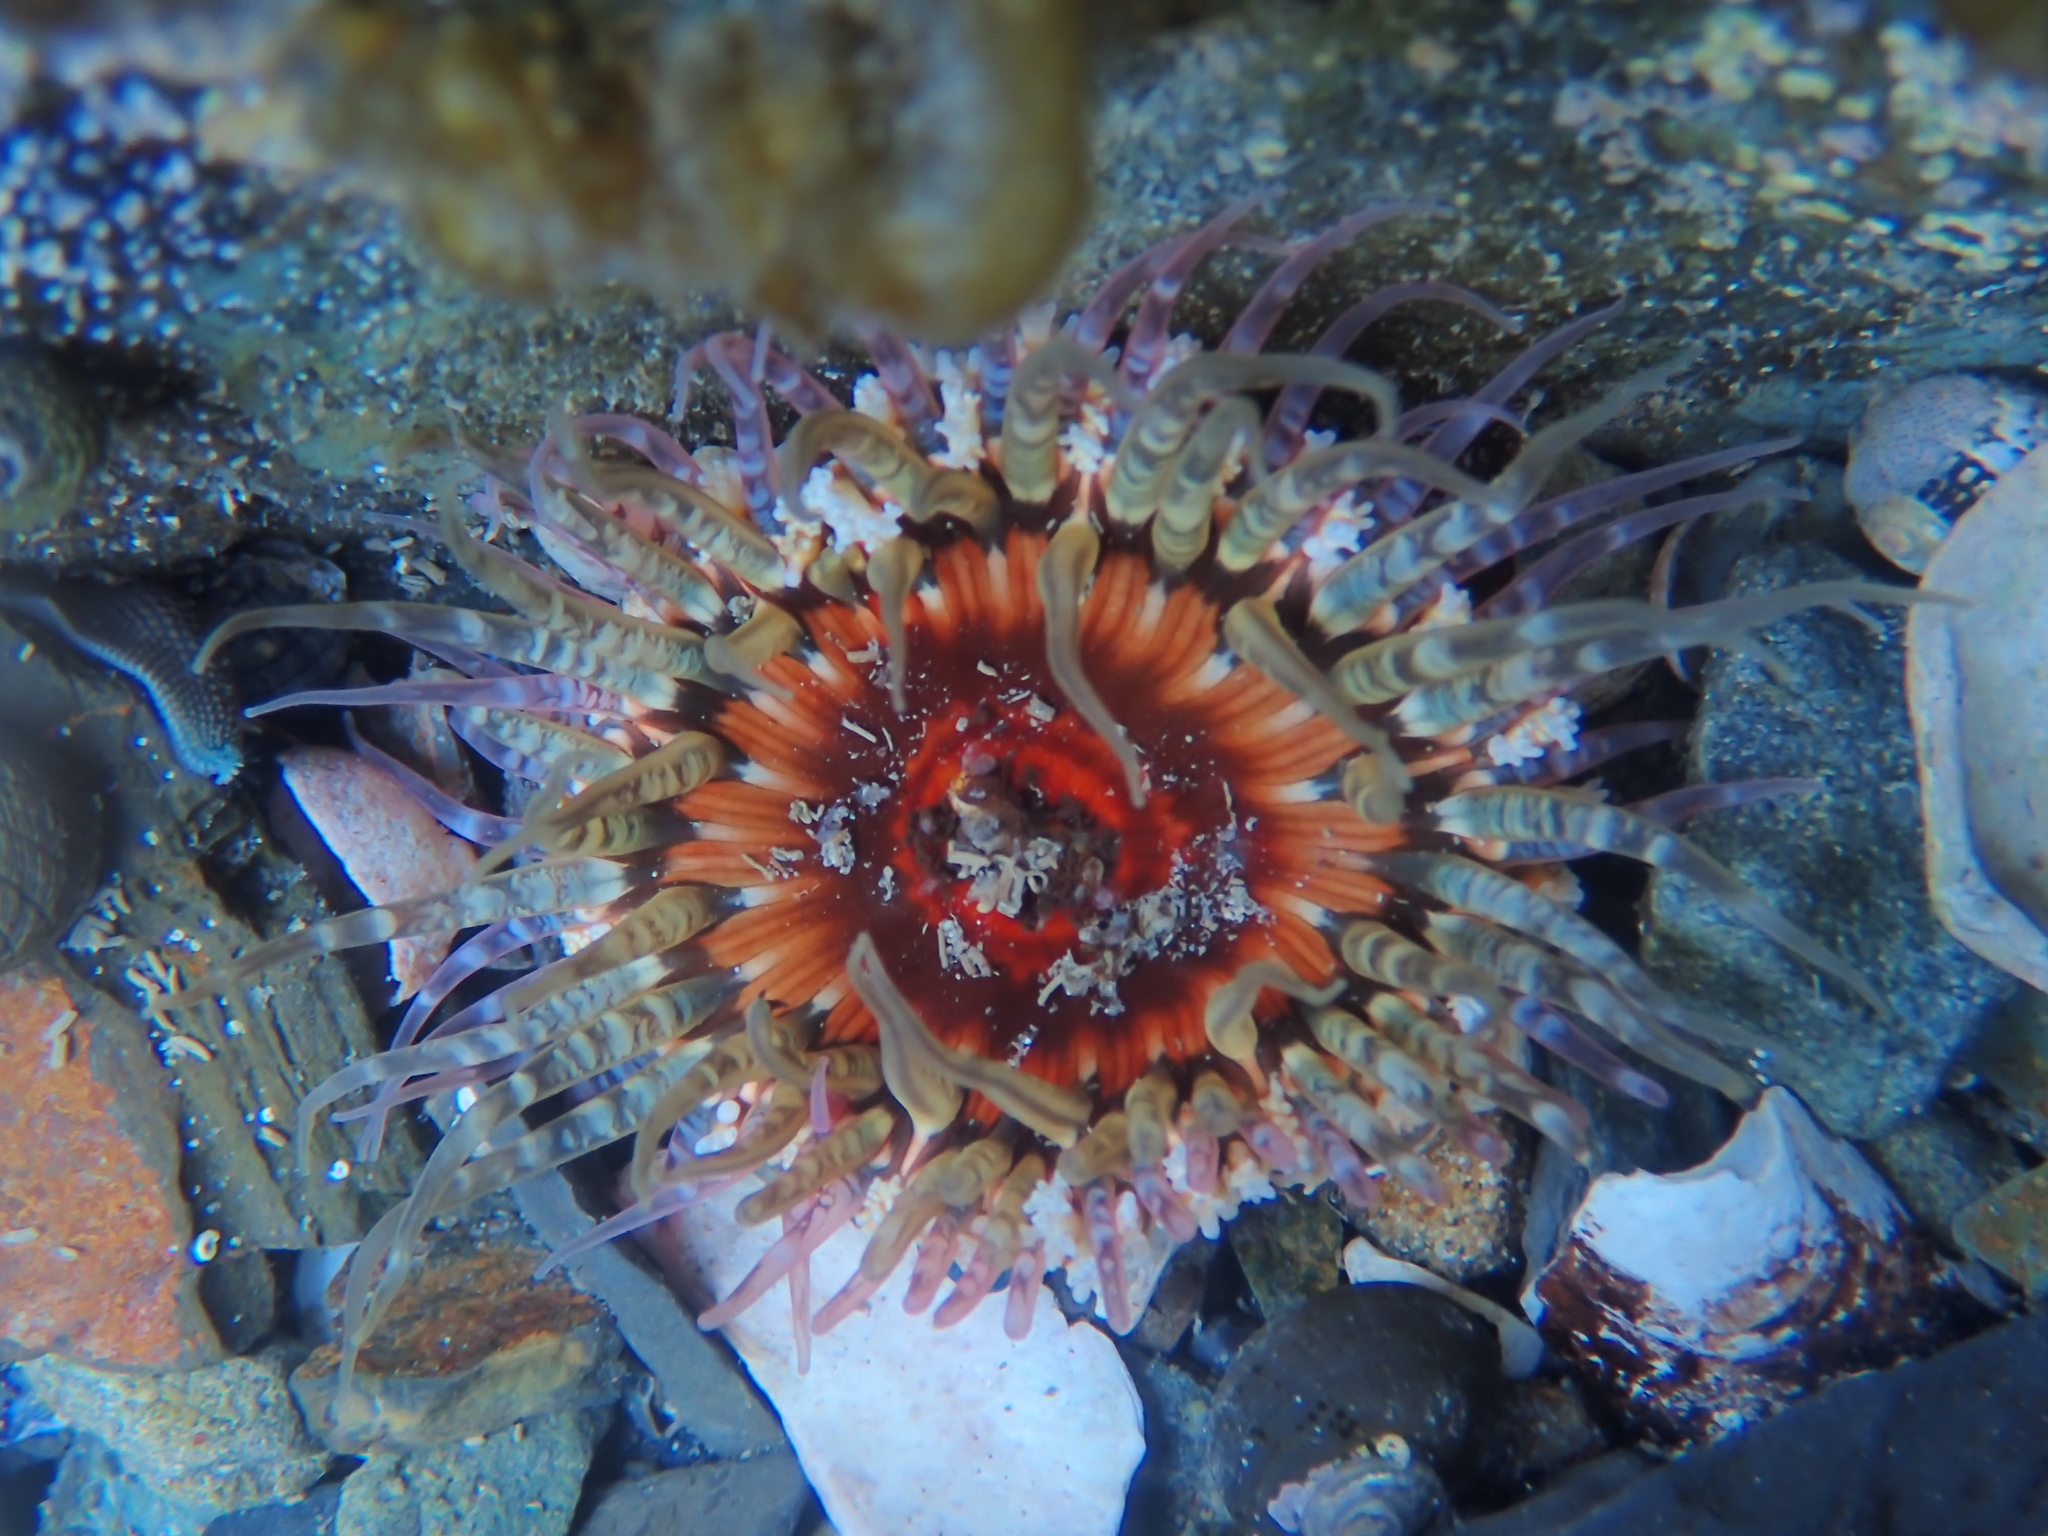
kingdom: Animalia
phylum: Cnidaria
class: Anthozoa
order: Actiniaria
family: Actiniidae
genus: Oulactis
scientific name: Oulactis muscosa
